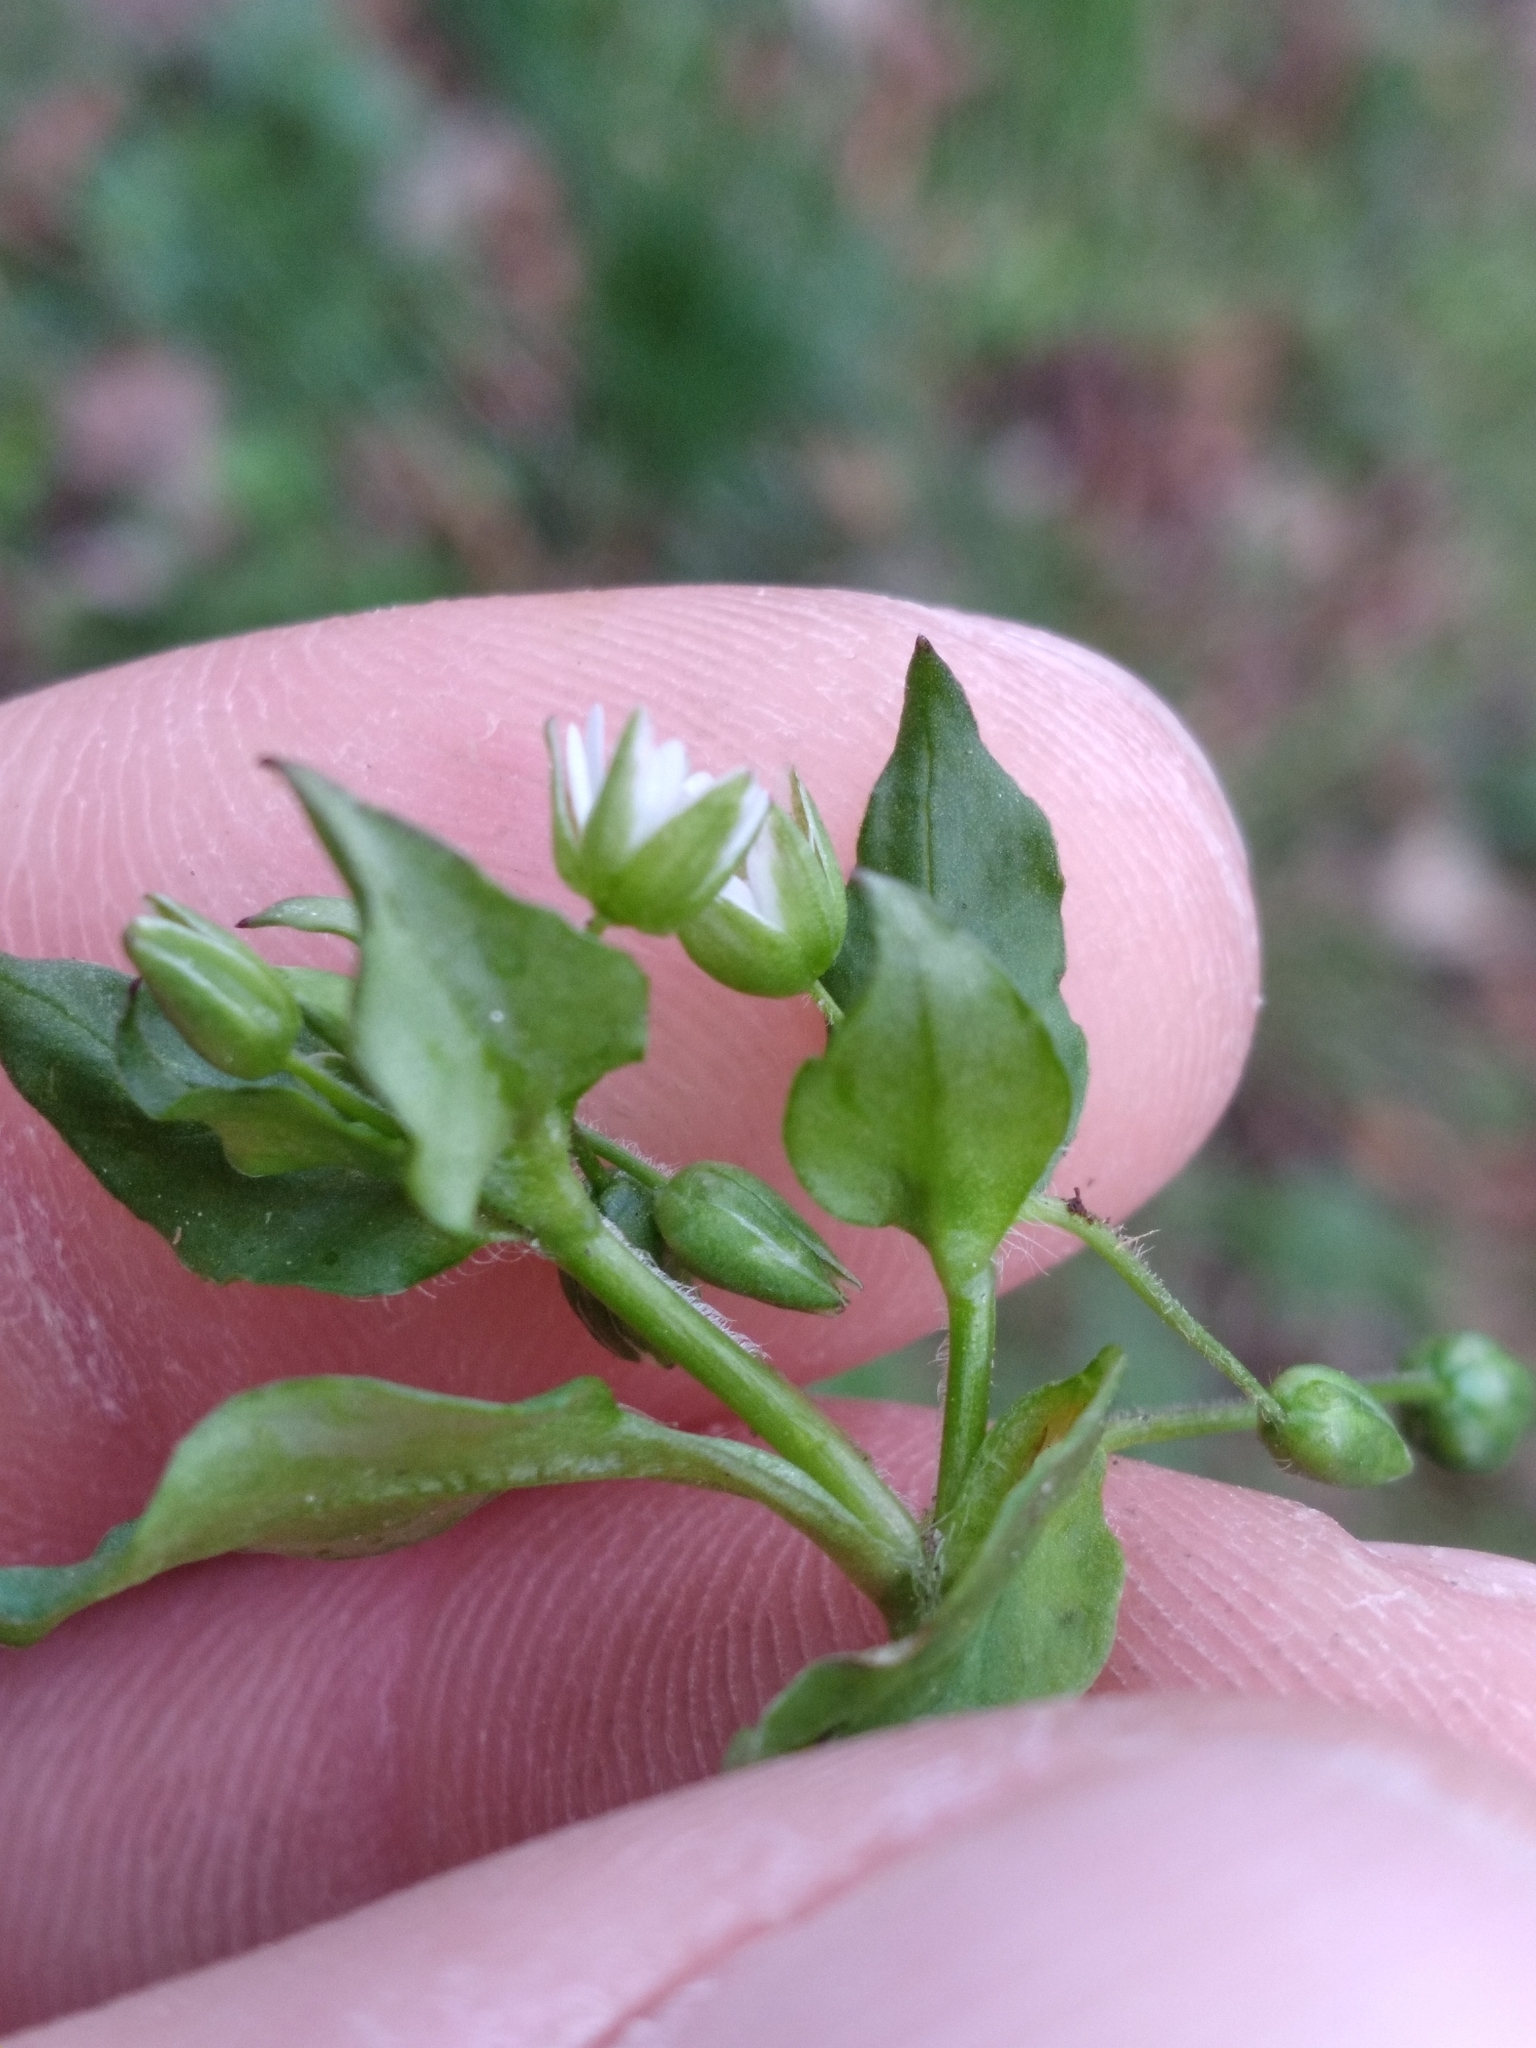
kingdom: Plantae
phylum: Tracheophyta
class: Magnoliopsida
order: Caryophyllales
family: Caryophyllaceae
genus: Stellaria
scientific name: Stellaria media
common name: Common chickweed
